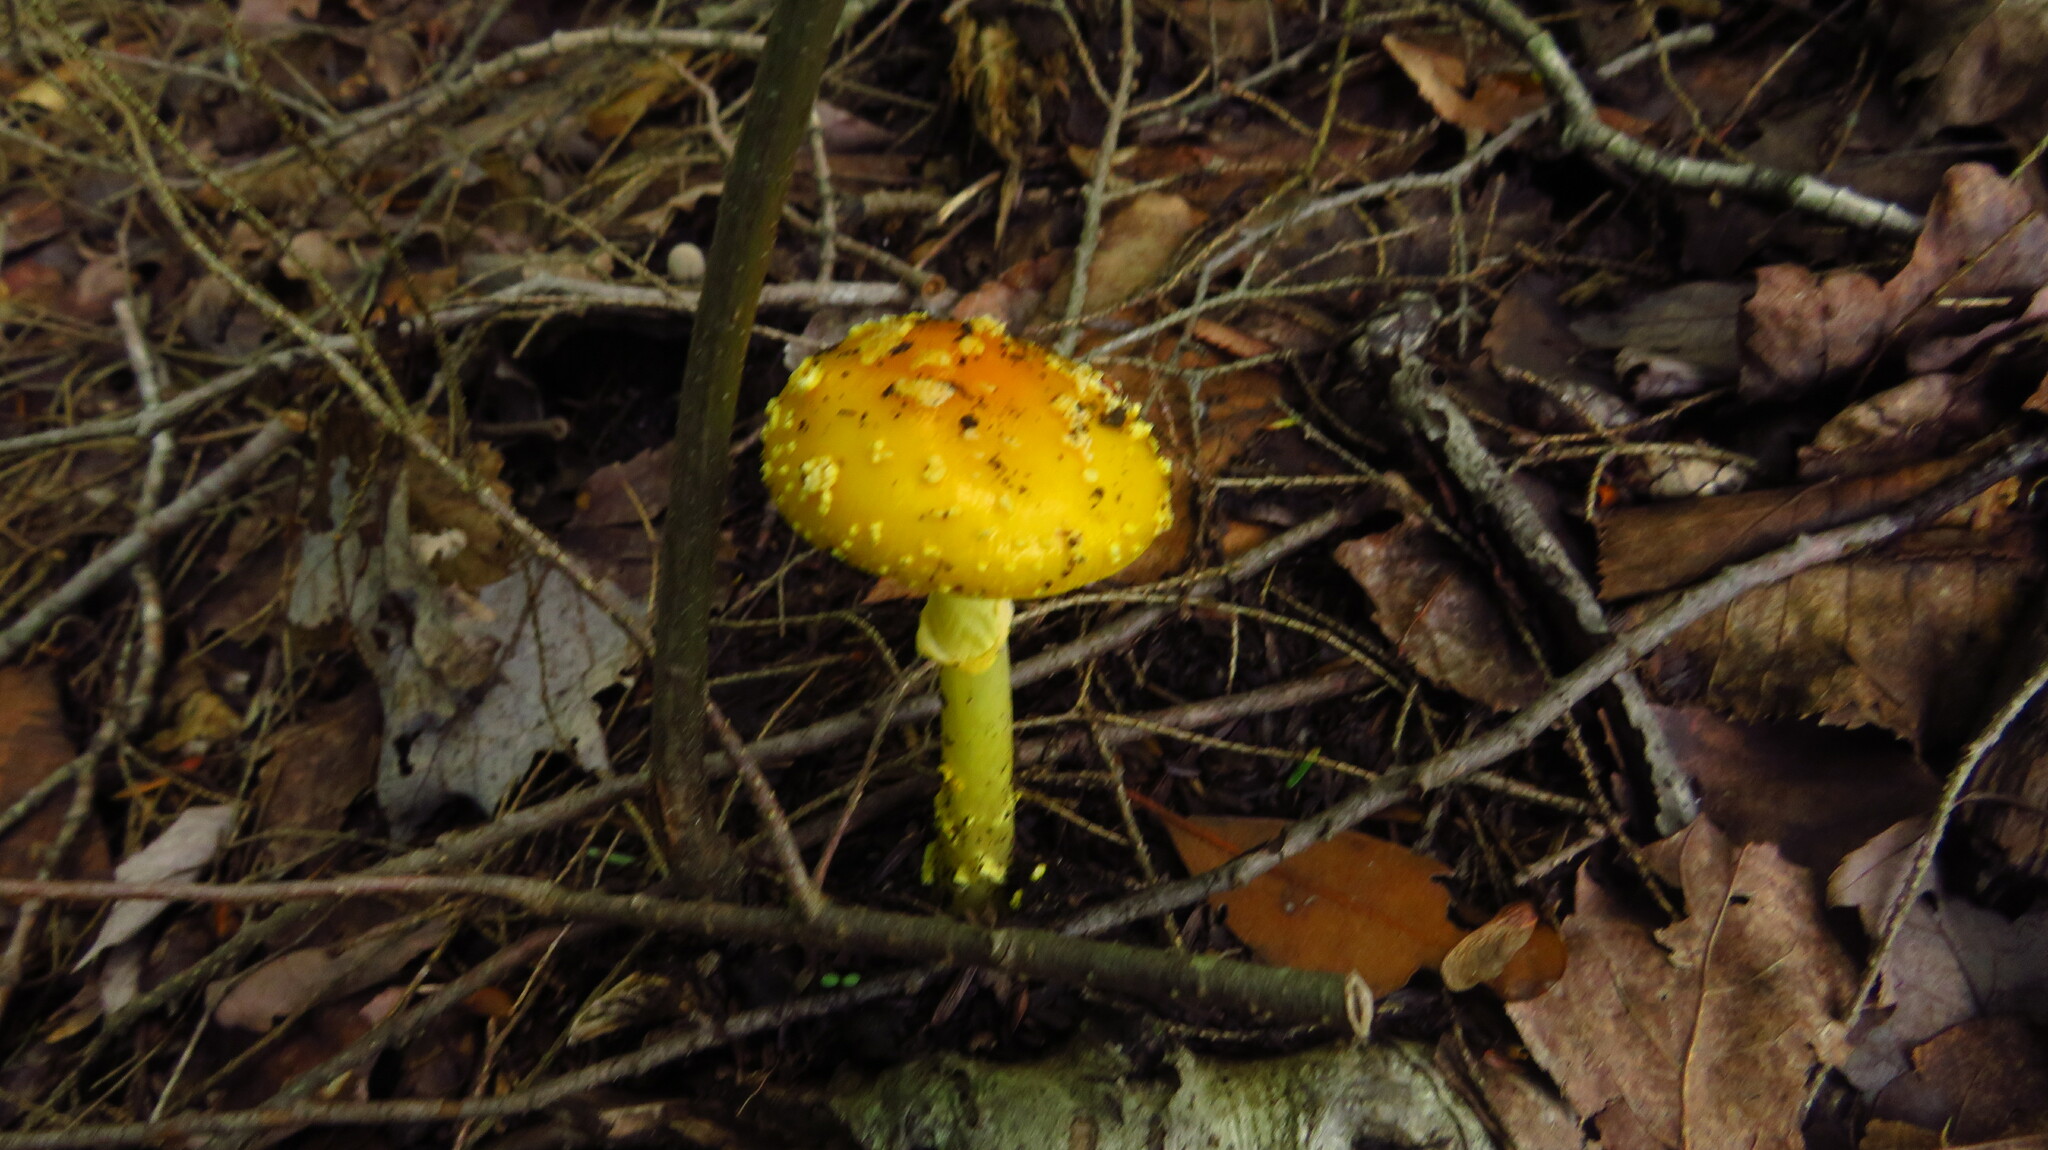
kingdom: Fungi
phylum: Basidiomycota
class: Agaricomycetes
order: Agaricales
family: Amanitaceae
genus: Amanita
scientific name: Amanita flavoconia
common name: Yellow patches
